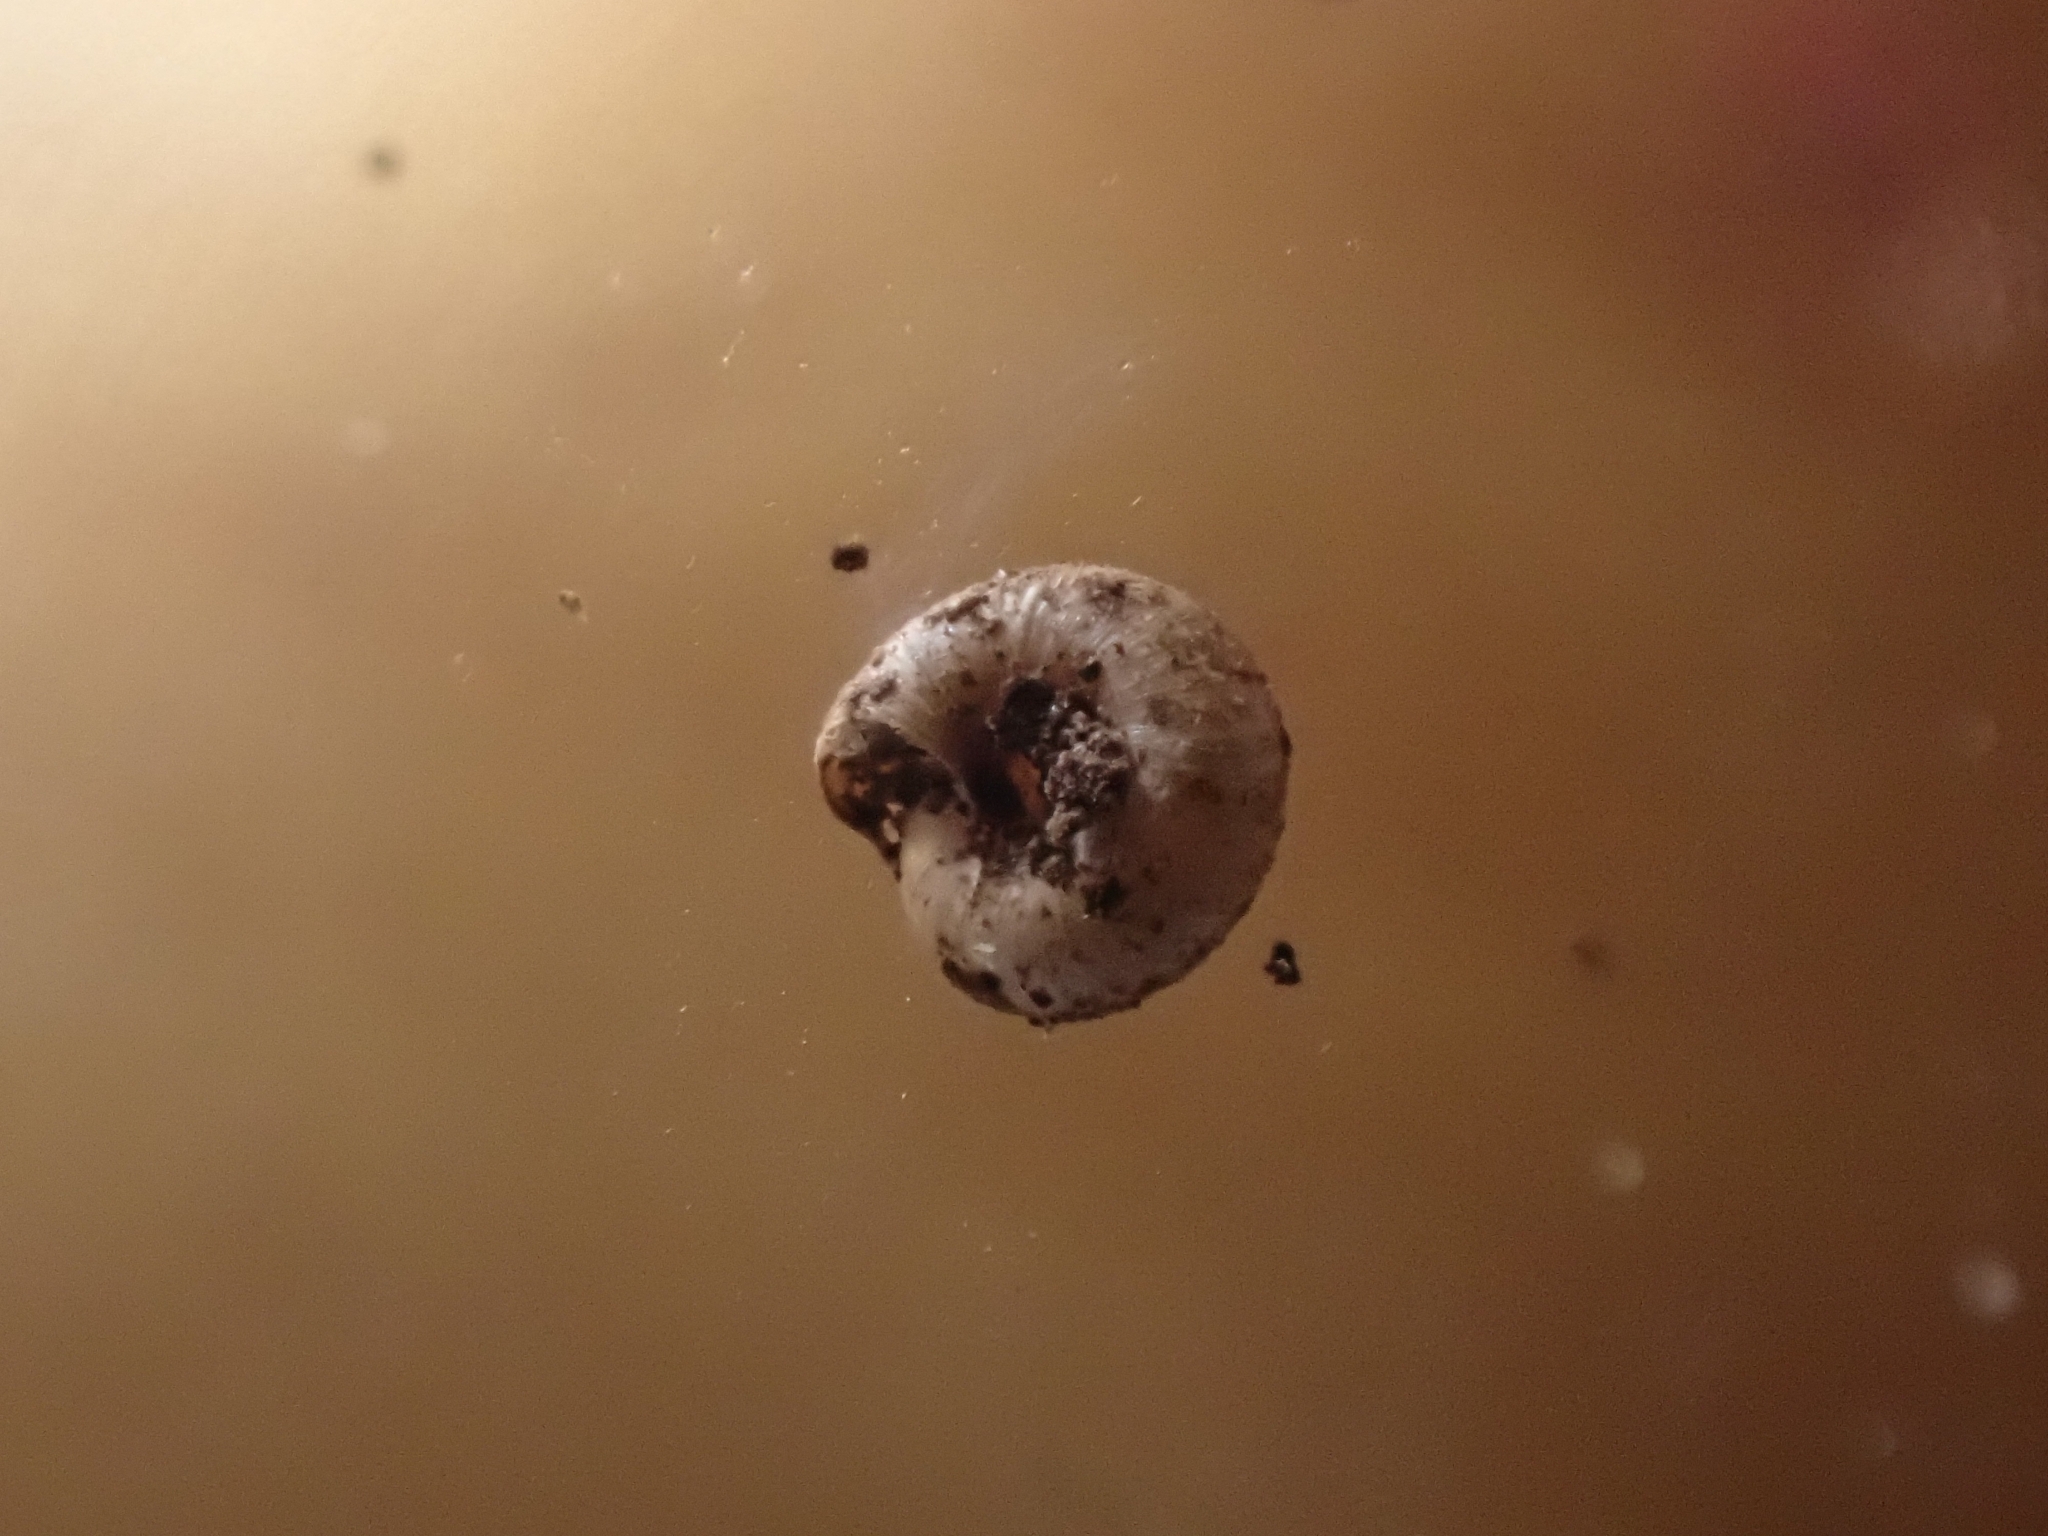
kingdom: Animalia
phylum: Mollusca
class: Gastropoda
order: Stylommatophora
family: Punctidae
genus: Paralaoma
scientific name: Paralaoma lateumbilicata
